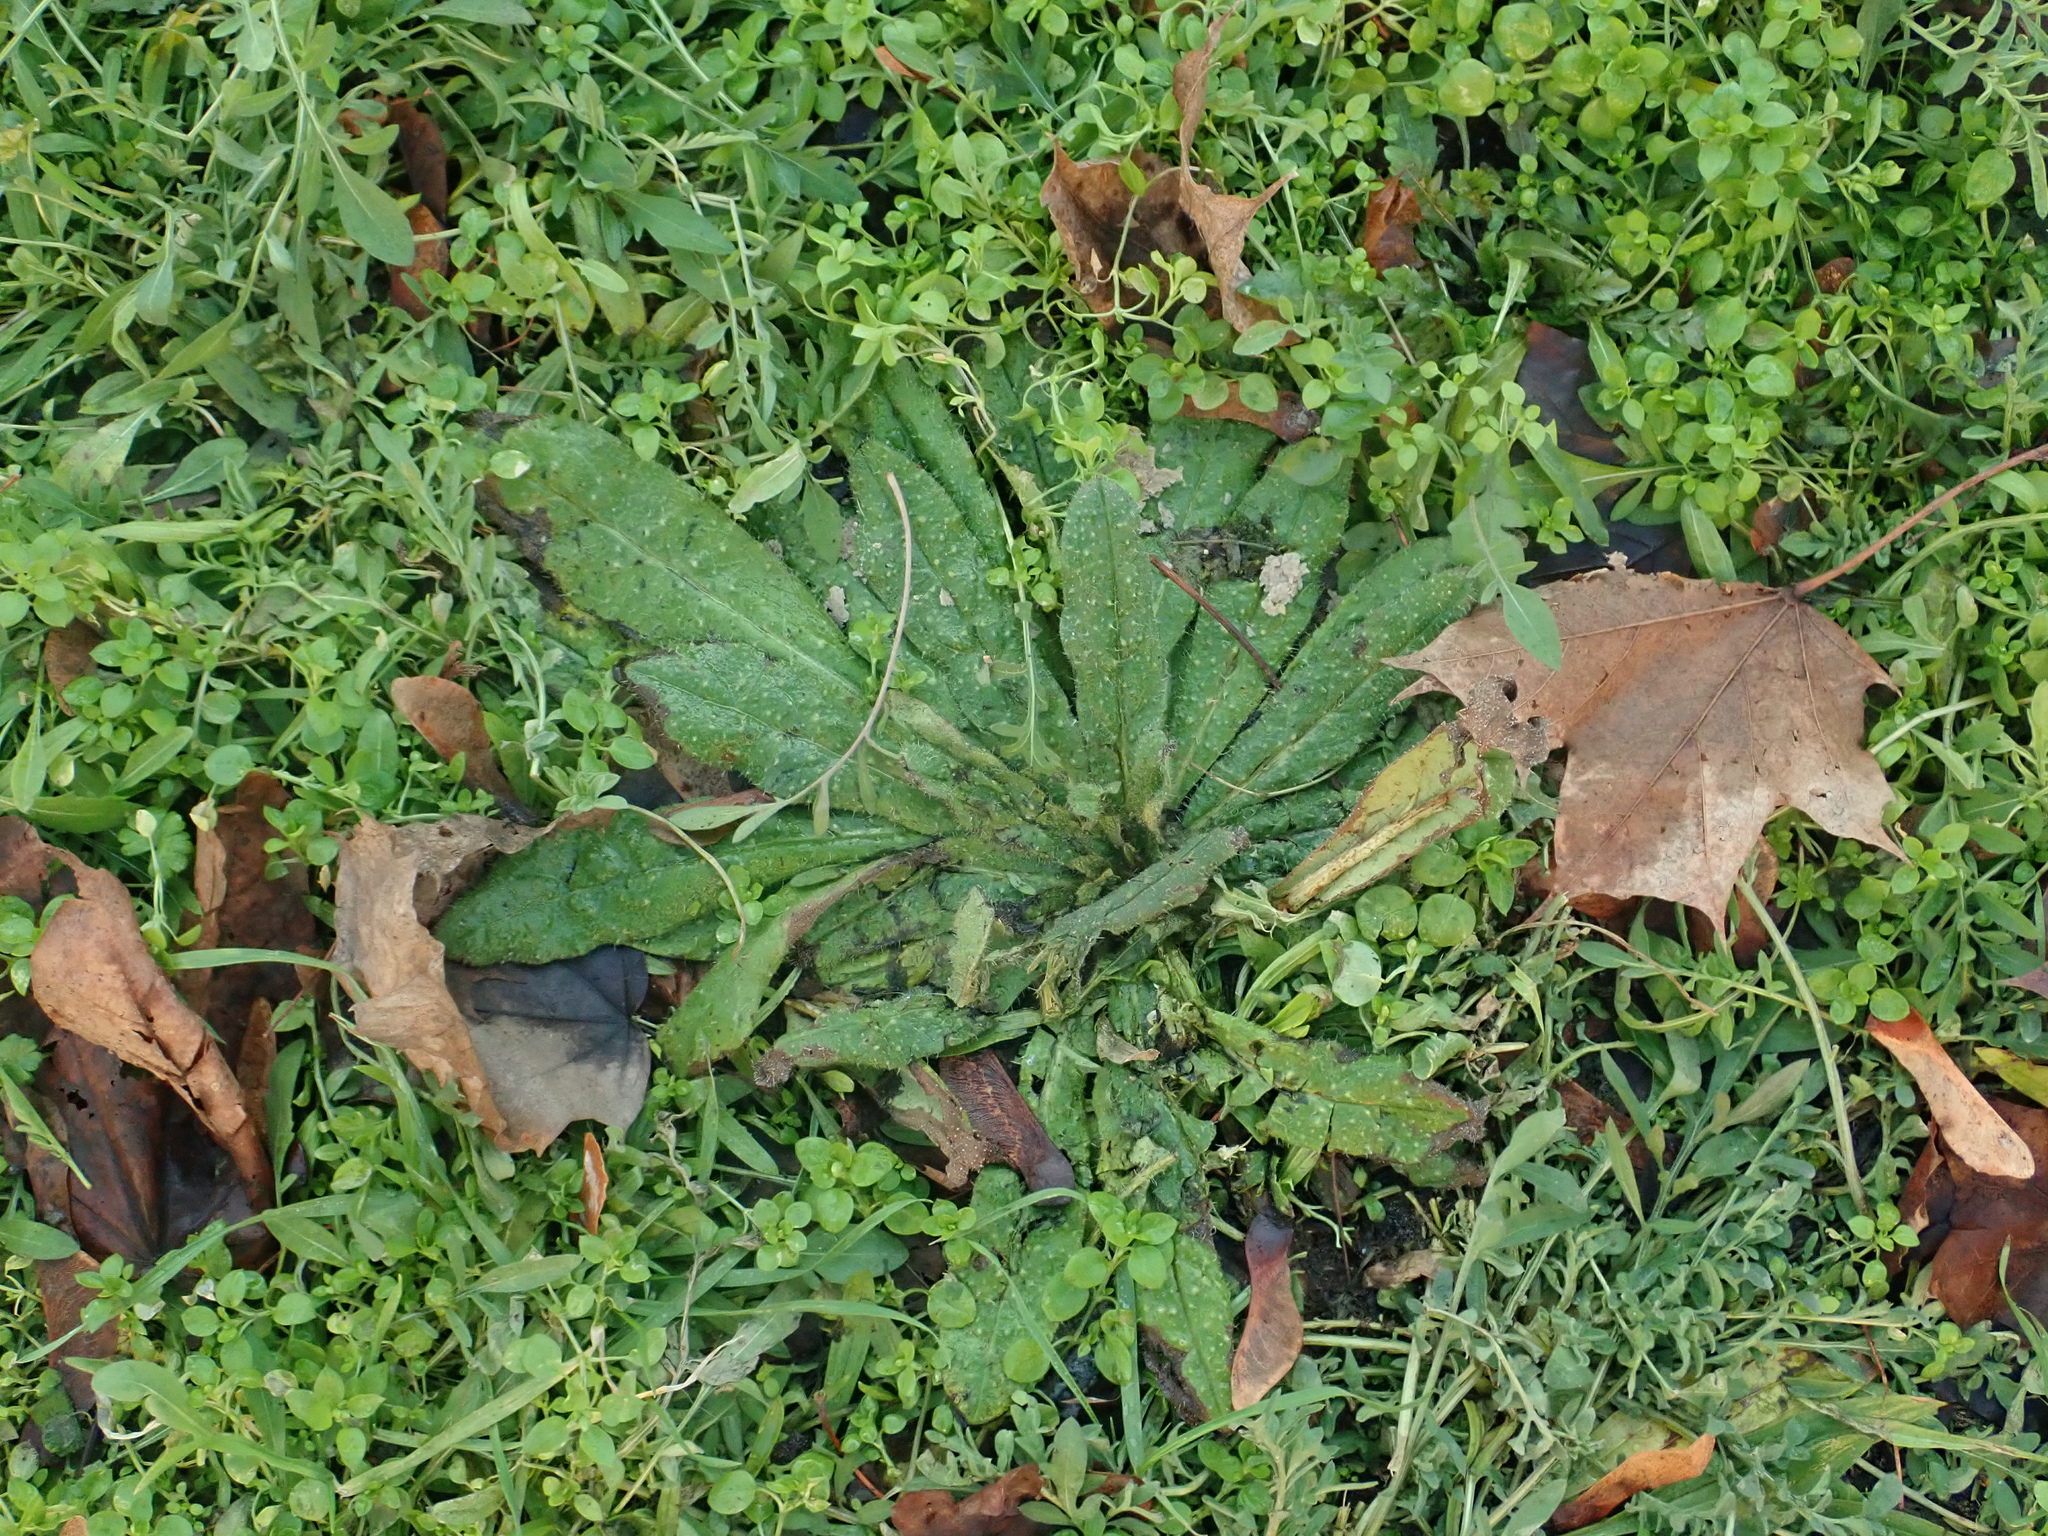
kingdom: Plantae
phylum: Tracheophyta
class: Magnoliopsida
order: Boraginales
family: Boraginaceae
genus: Echium
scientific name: Echium vulgare
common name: Common viper's bugloss
